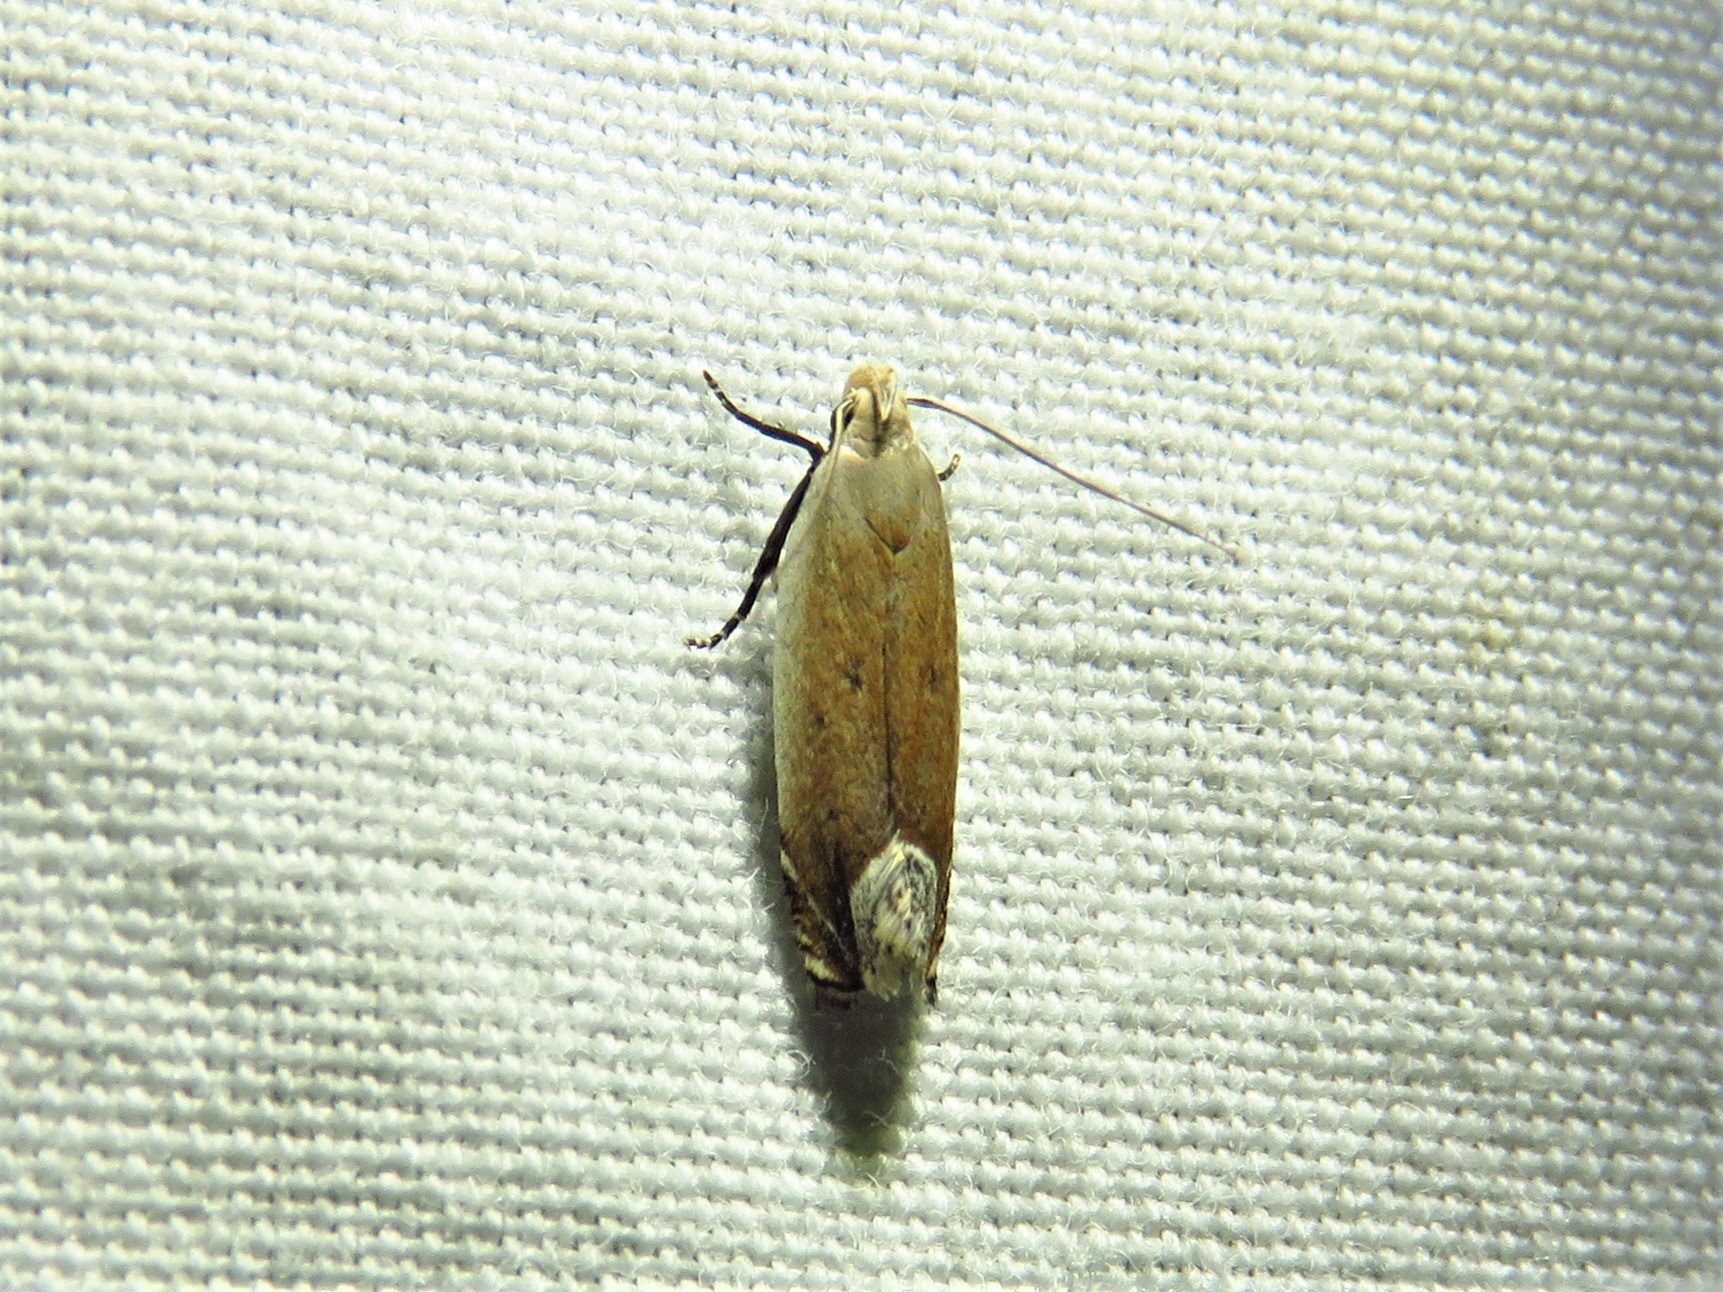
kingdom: Animalia
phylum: Arthropoda
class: Insecta
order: Lepidoptera
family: Gelechiidae
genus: Anacampsis
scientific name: Anacampsis paltodoriella
